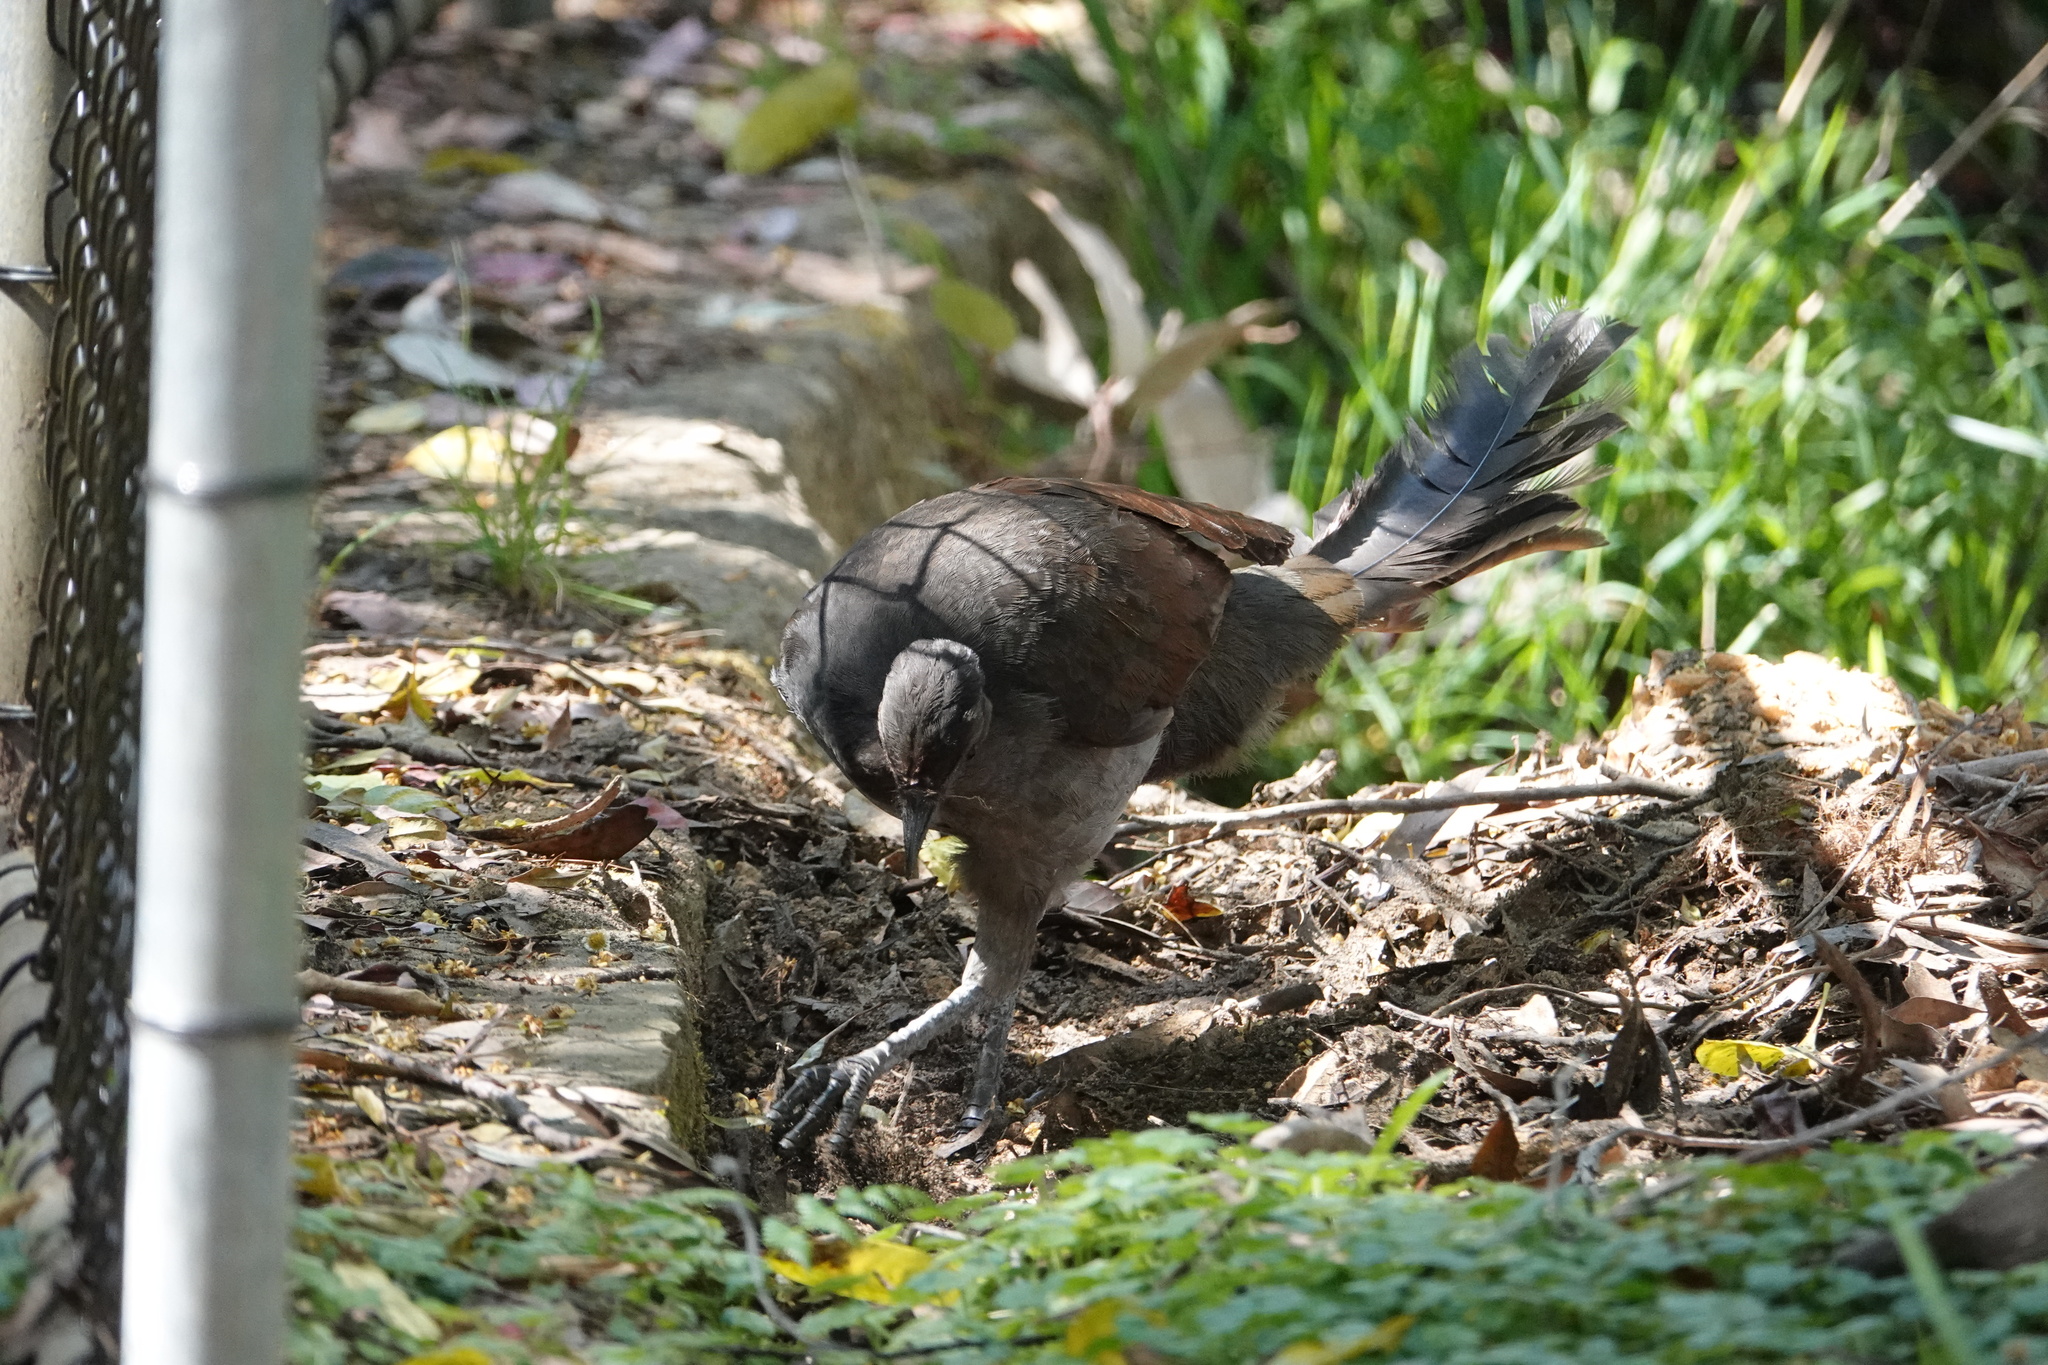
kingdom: Animalia
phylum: Chordata
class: Aves
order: Passeriformes
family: Menuridae
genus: Menura
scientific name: Menura novaehollandiae
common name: Superb lyrebird
